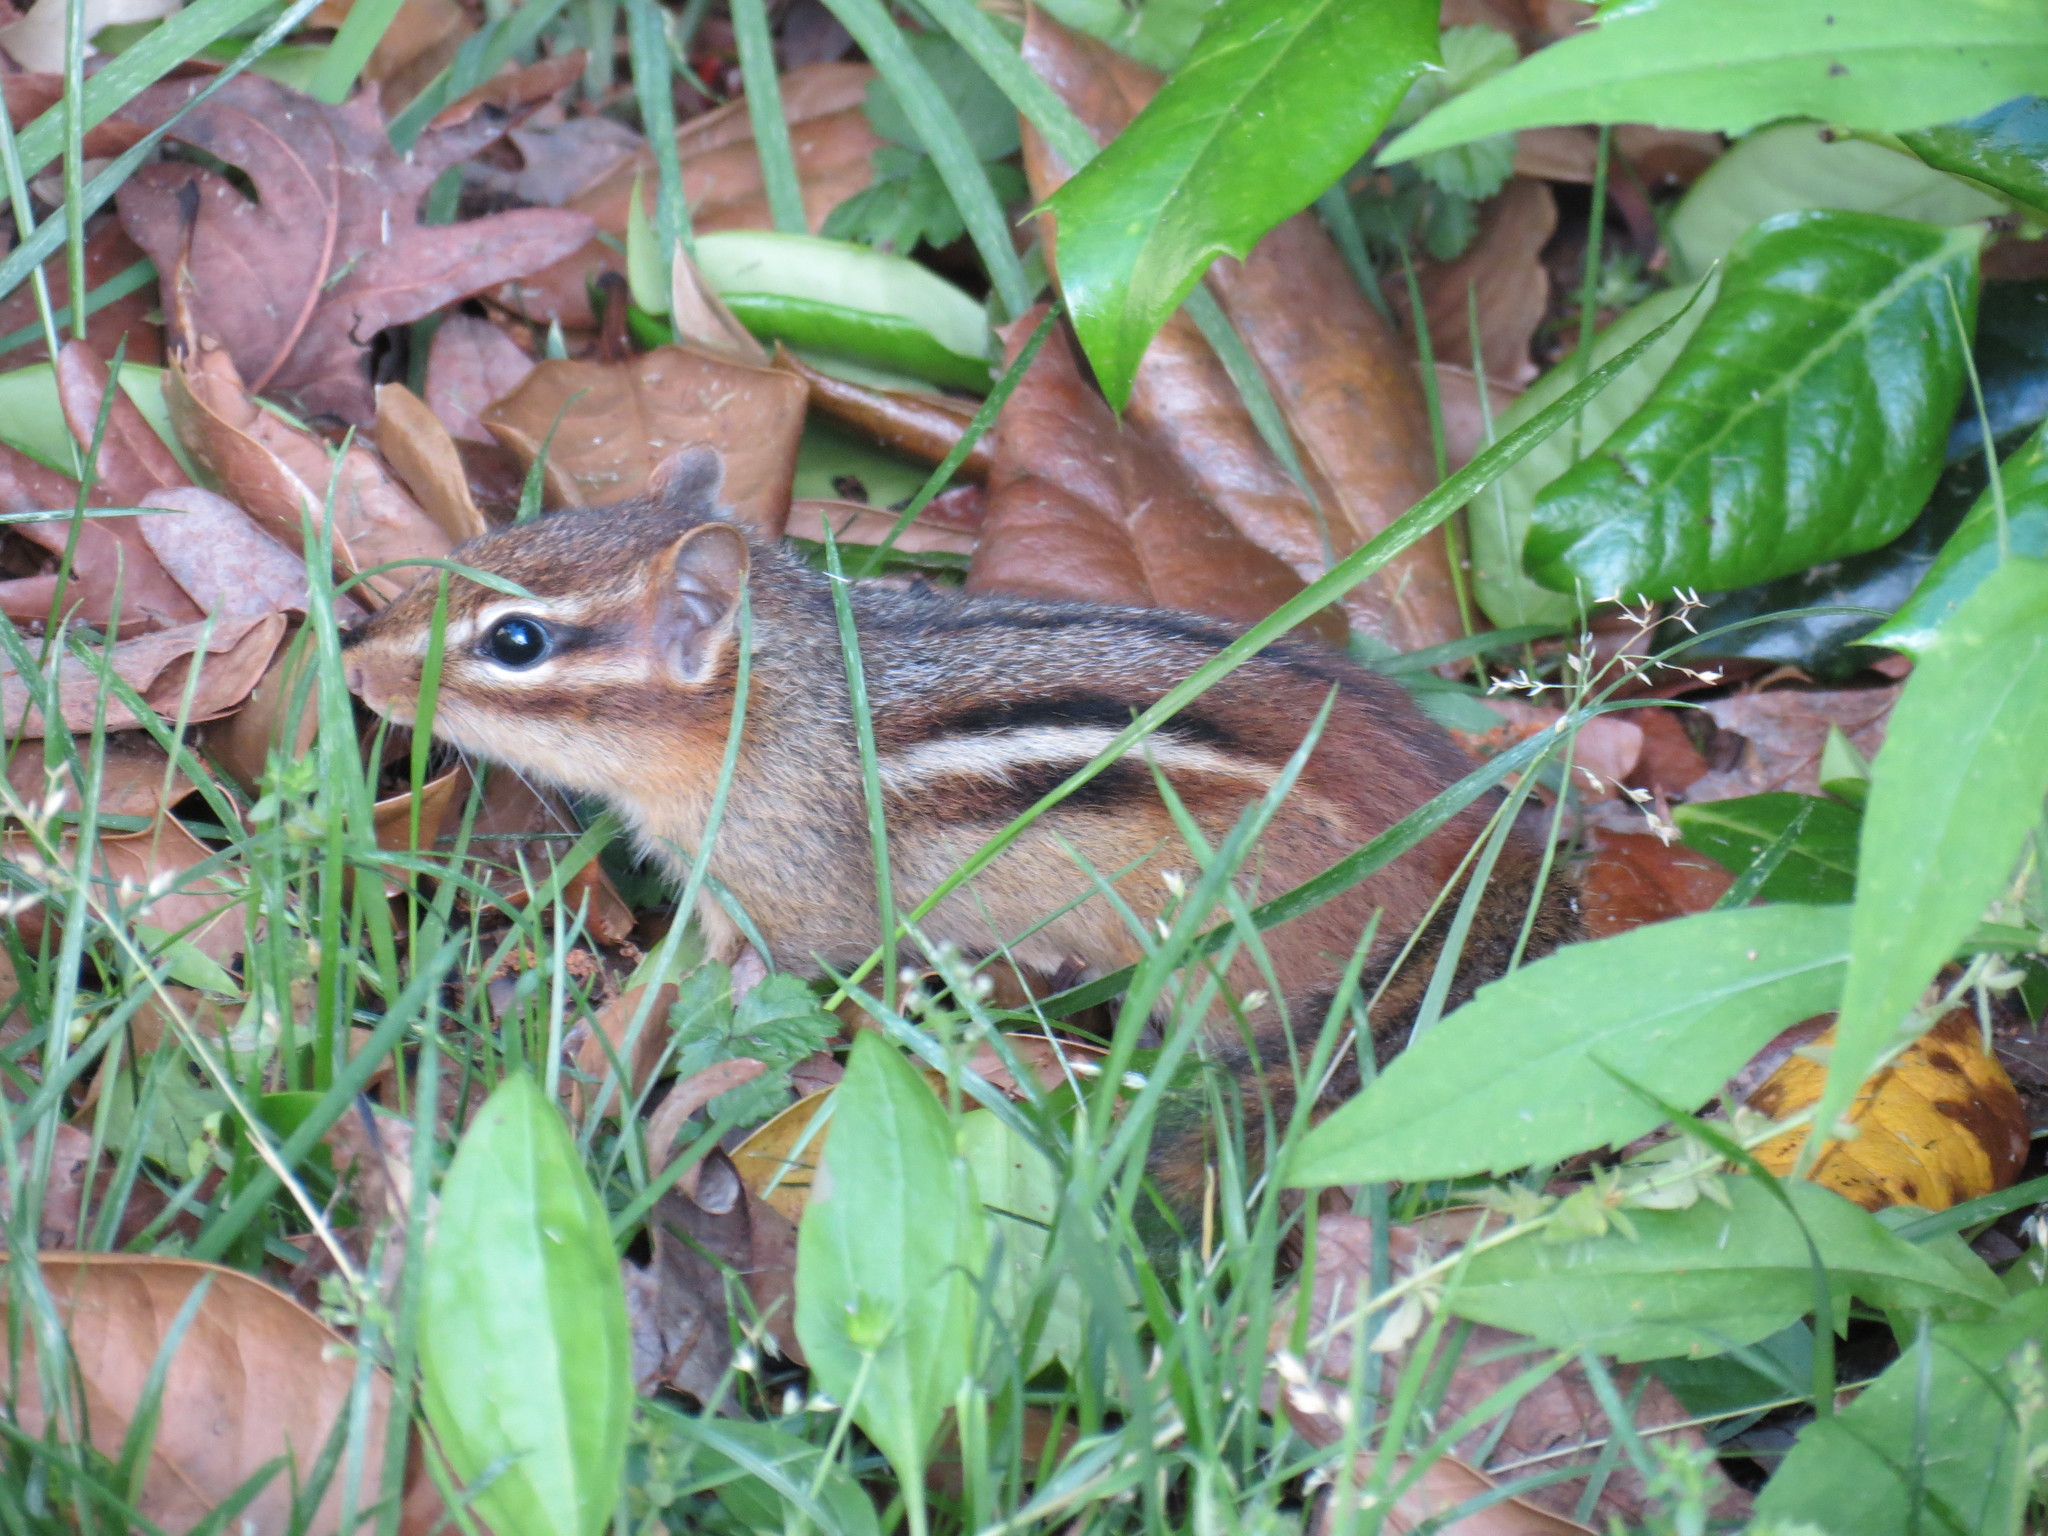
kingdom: Animalia
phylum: Chordata
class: Mammalia
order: Rodentia
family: Sciuridae
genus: Tamias
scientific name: Tamias striatus
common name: Eastern chipmunk
